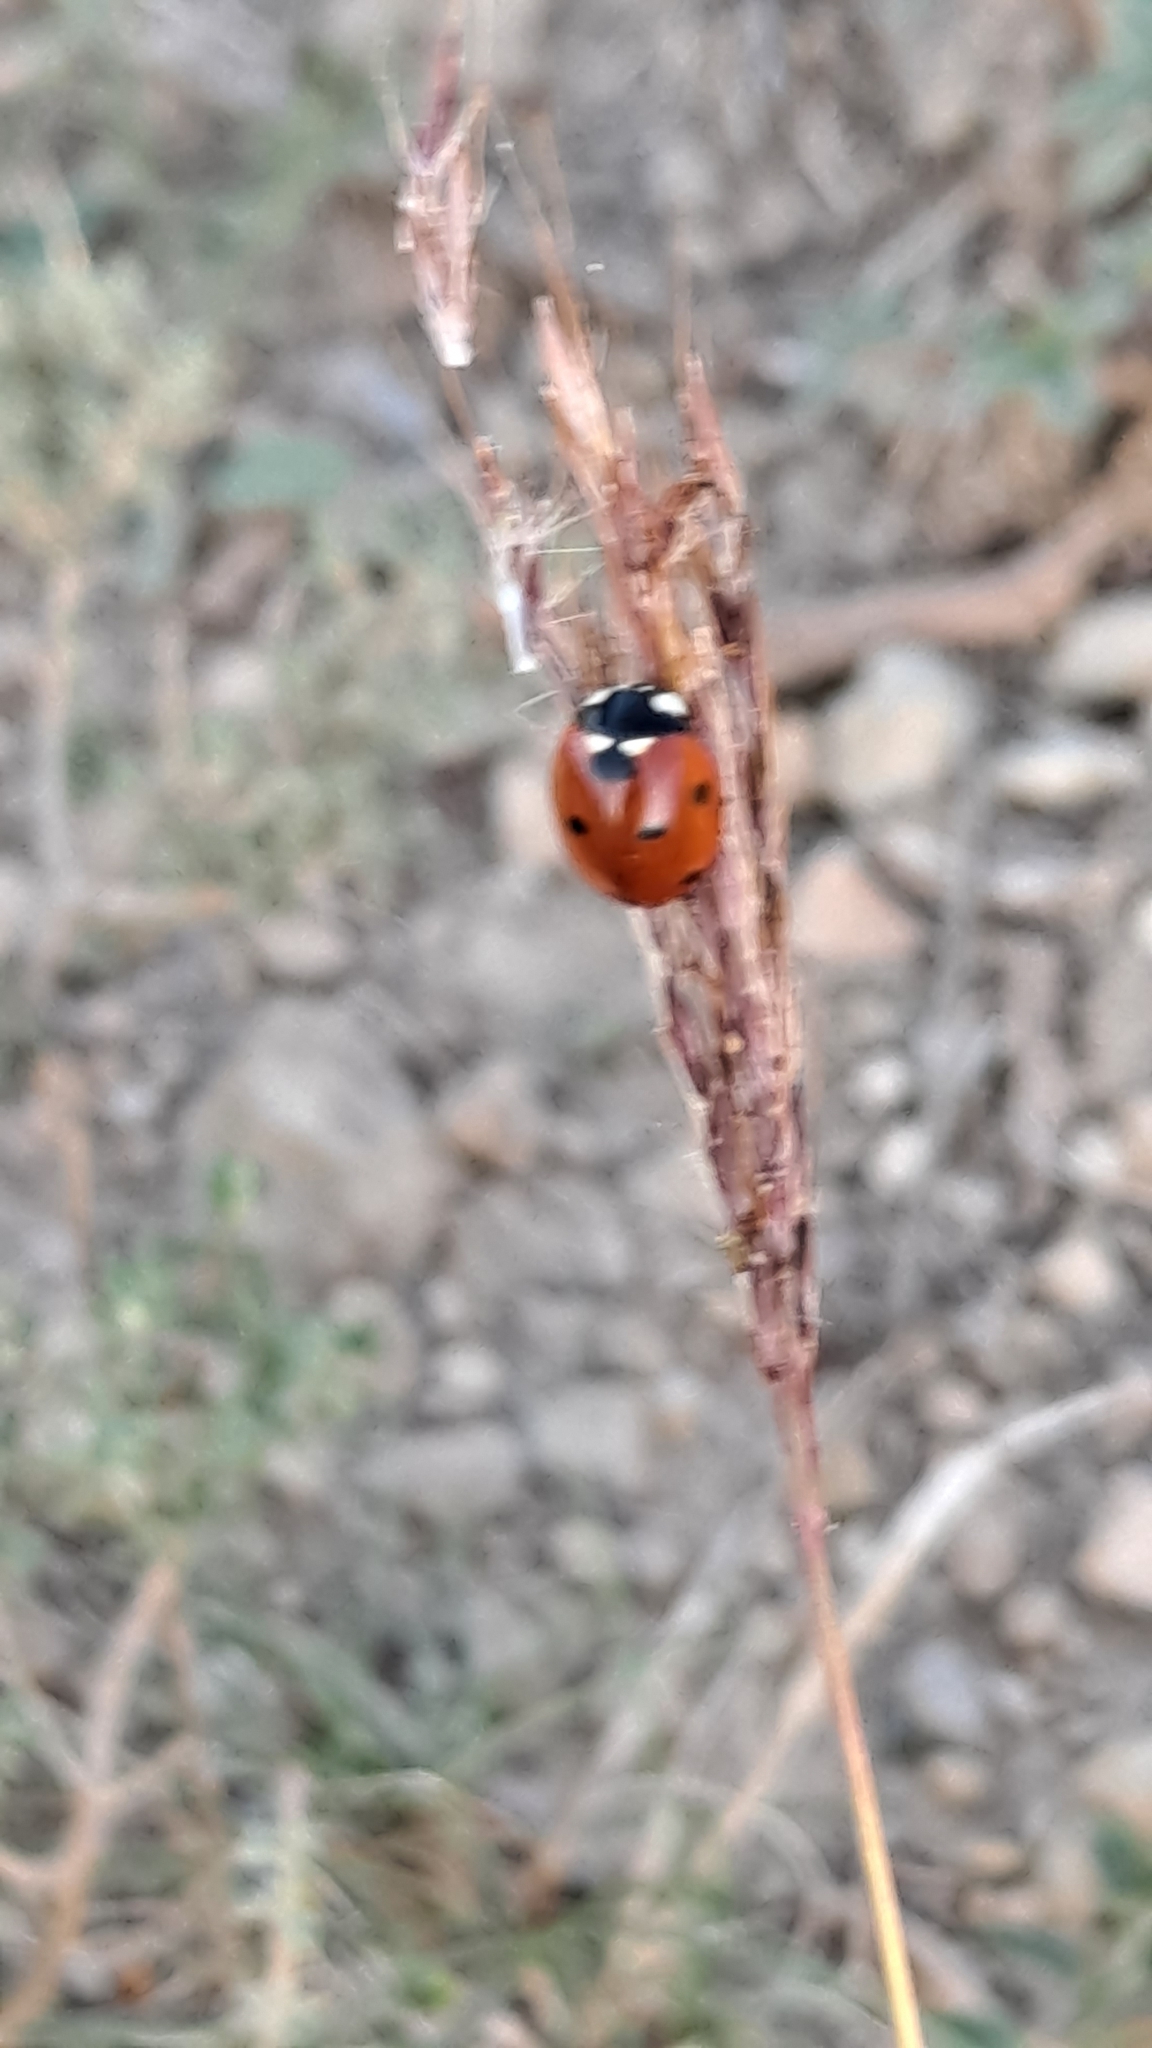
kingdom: Animalia
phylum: Arthropoda
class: Insecta
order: Coleoptera
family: Coccinellidae
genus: Coccinella
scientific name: Coccinella septempunctata
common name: Sevenspotted lady beetle
